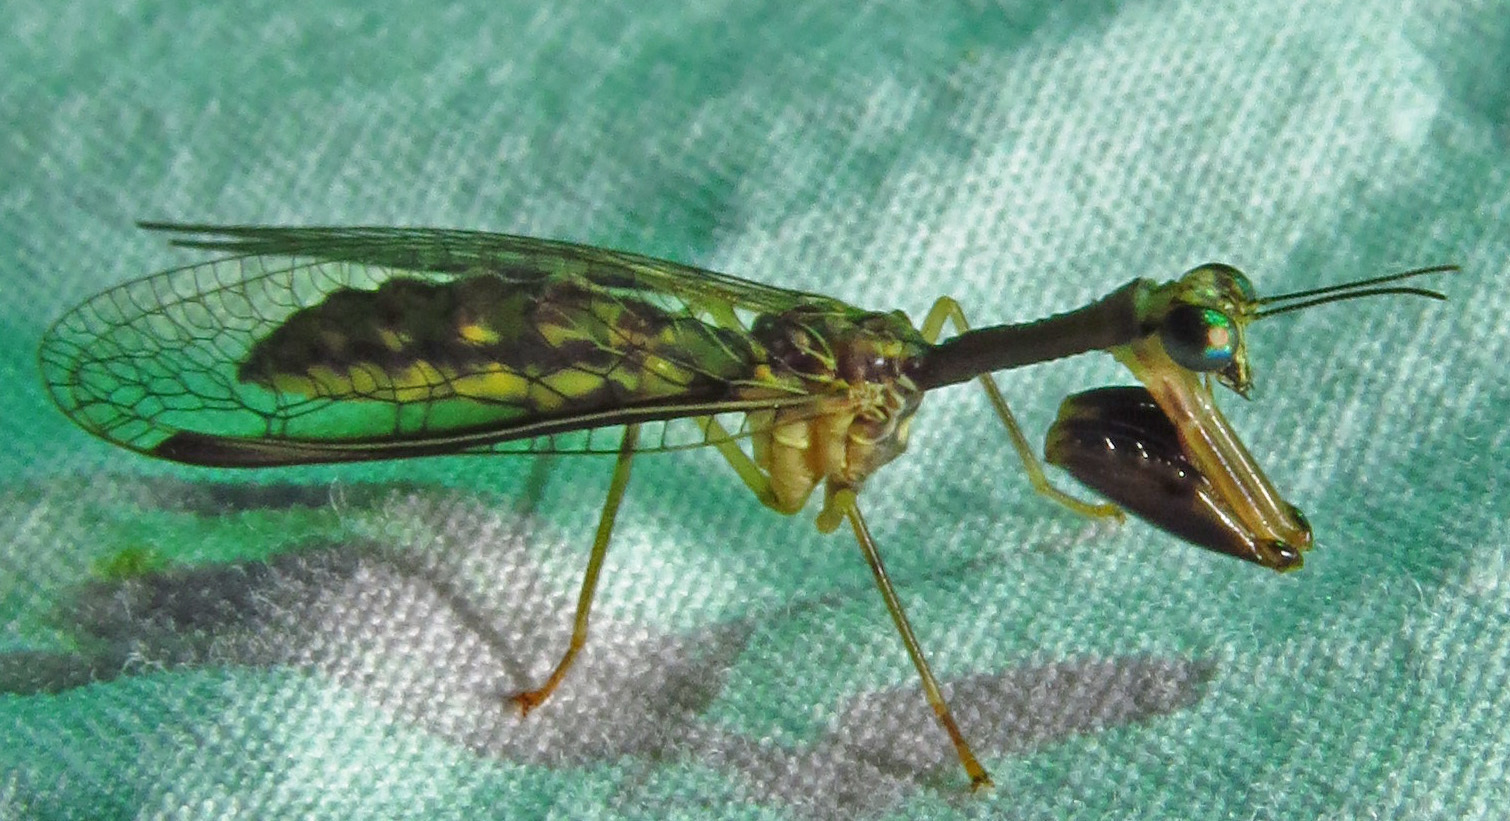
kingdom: Animalia
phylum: Arthropoda
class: Insecta
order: Neuroptera
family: Mantispidae
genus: Dicromantispa
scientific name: Dicromantispa sayi
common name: Say's mantidfly
